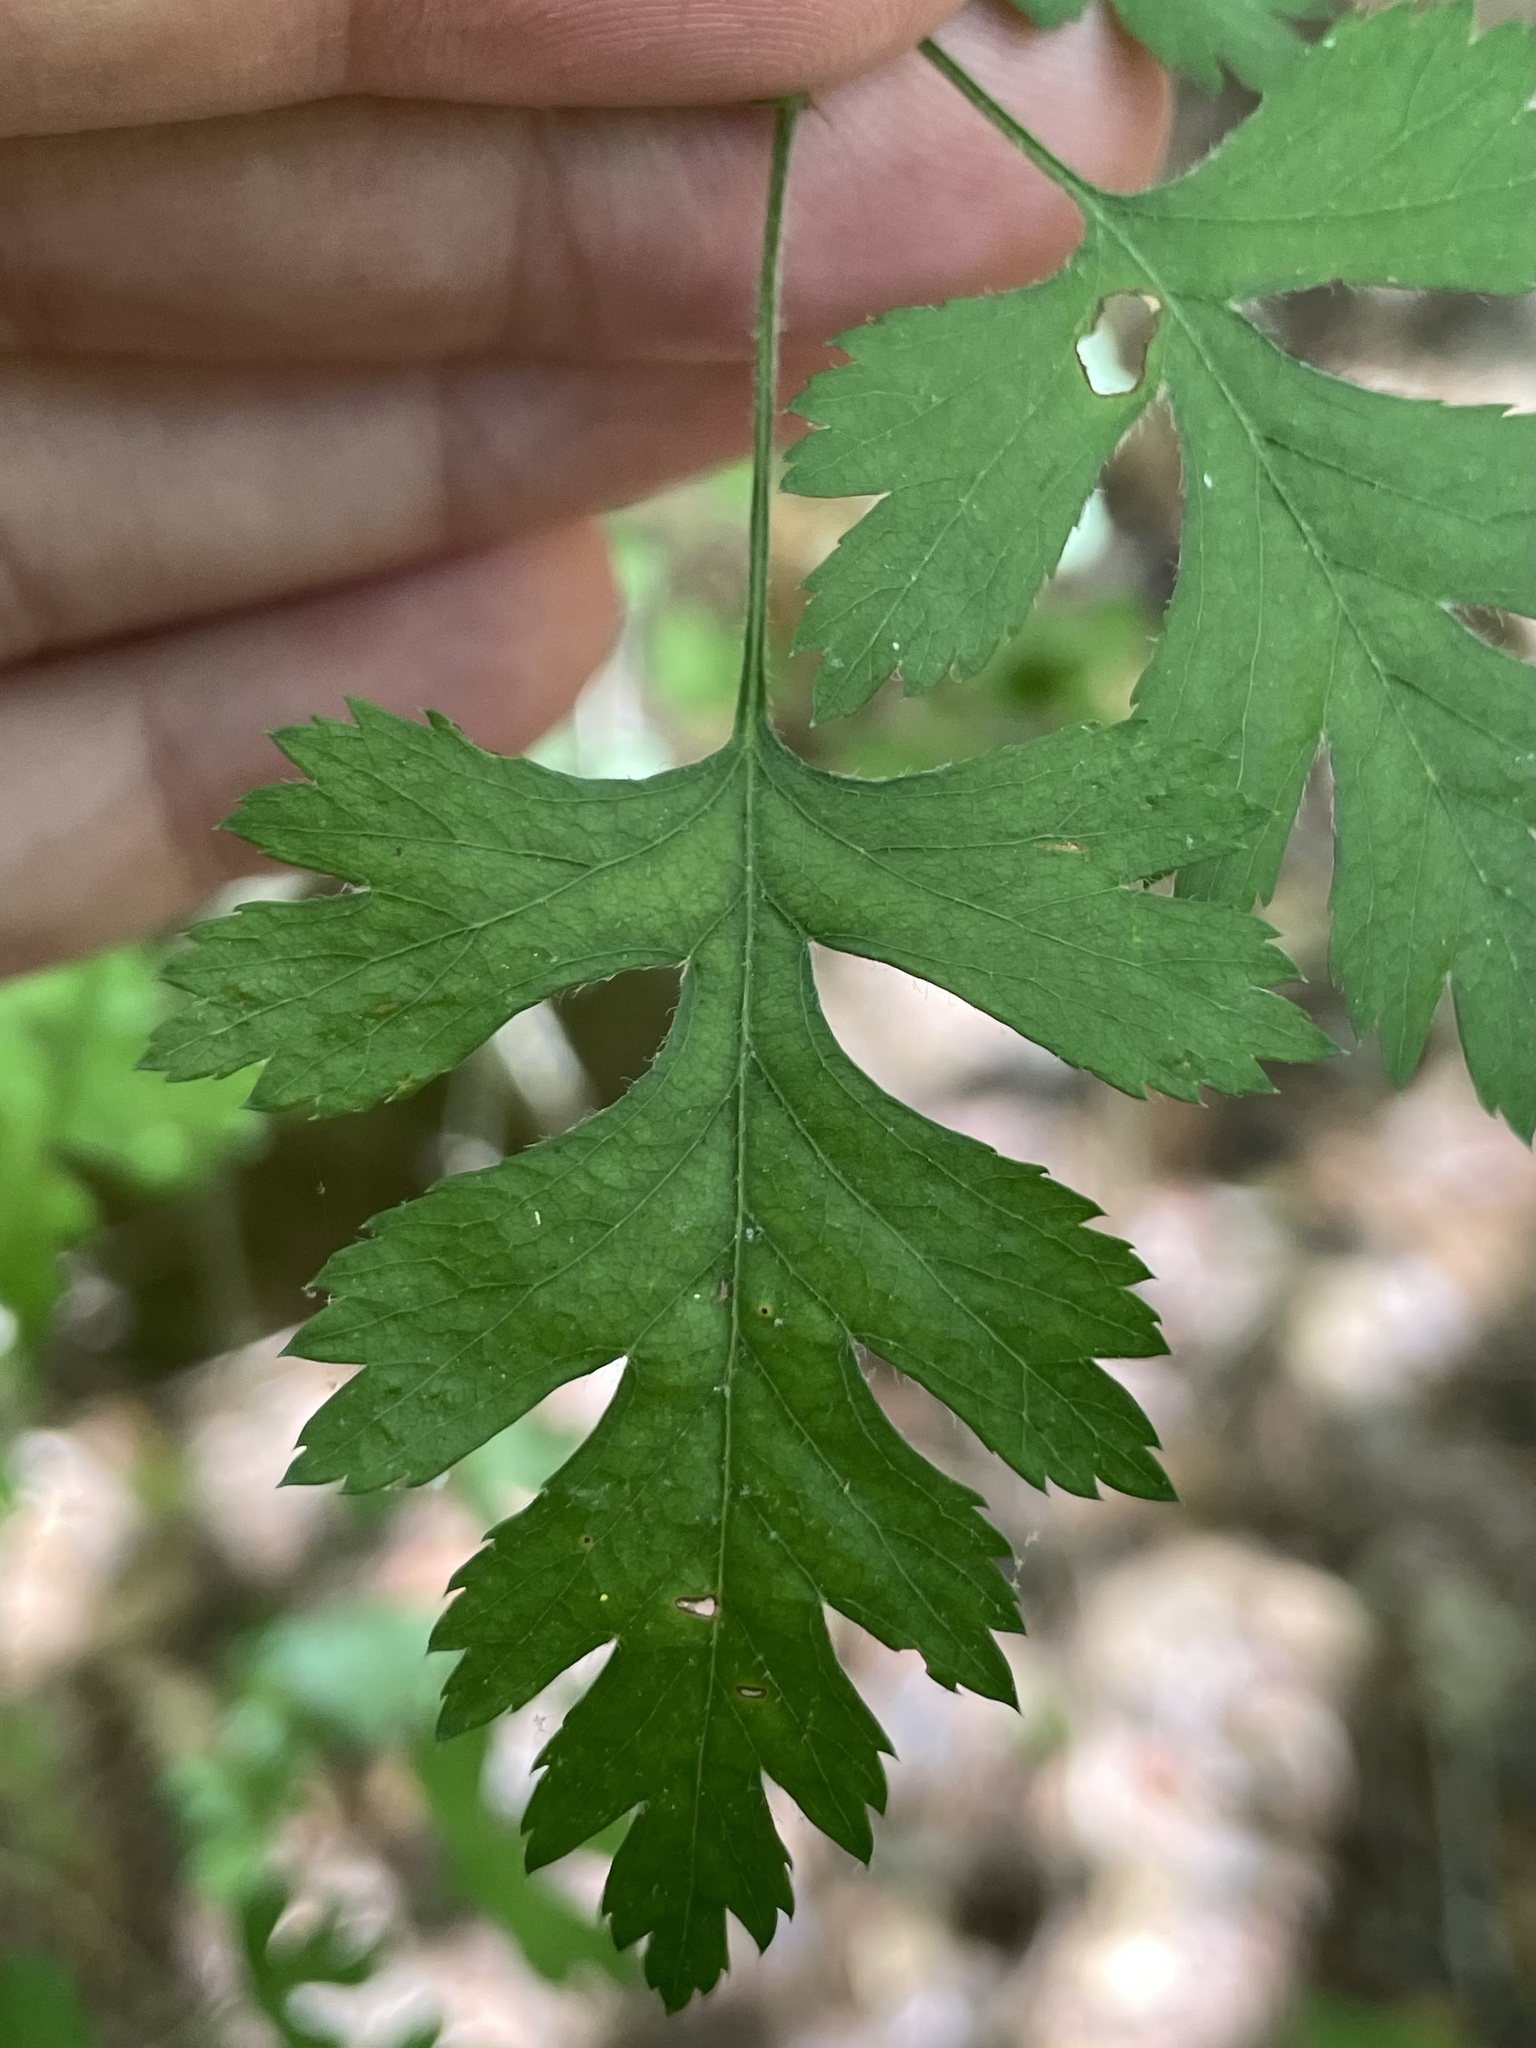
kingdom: Plantae
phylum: Tracheophyta
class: Magnoliopsida
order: Rosales
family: Rosaceae
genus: Crataegus
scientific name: Crataegus marshallii
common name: Parsley-hawthorn
